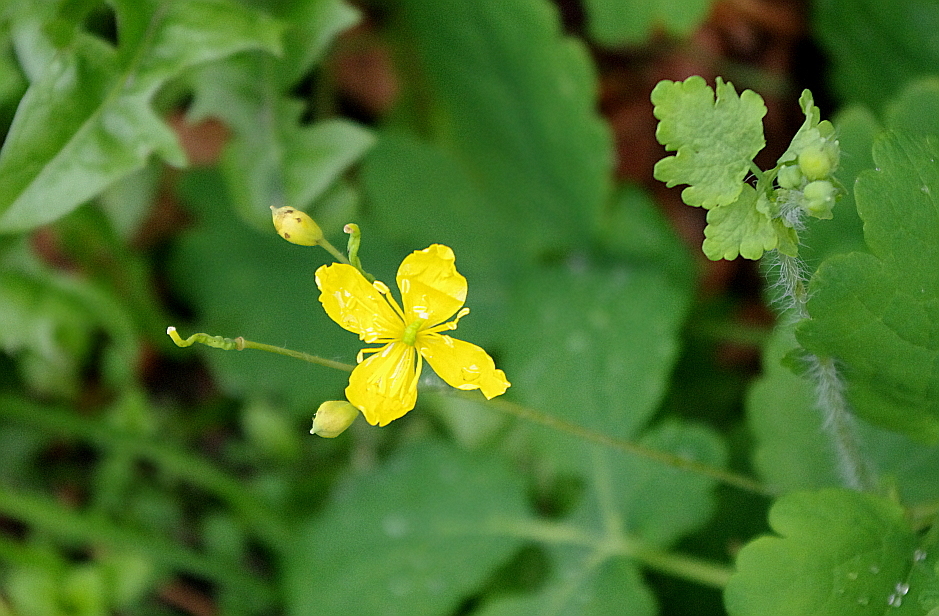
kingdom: Plantae
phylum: Tracheophyta
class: Magnoliopsida
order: Ranunculales
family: Papaveraceae
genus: Chelidonium
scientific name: Chelidonium majus
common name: Greater celandine
